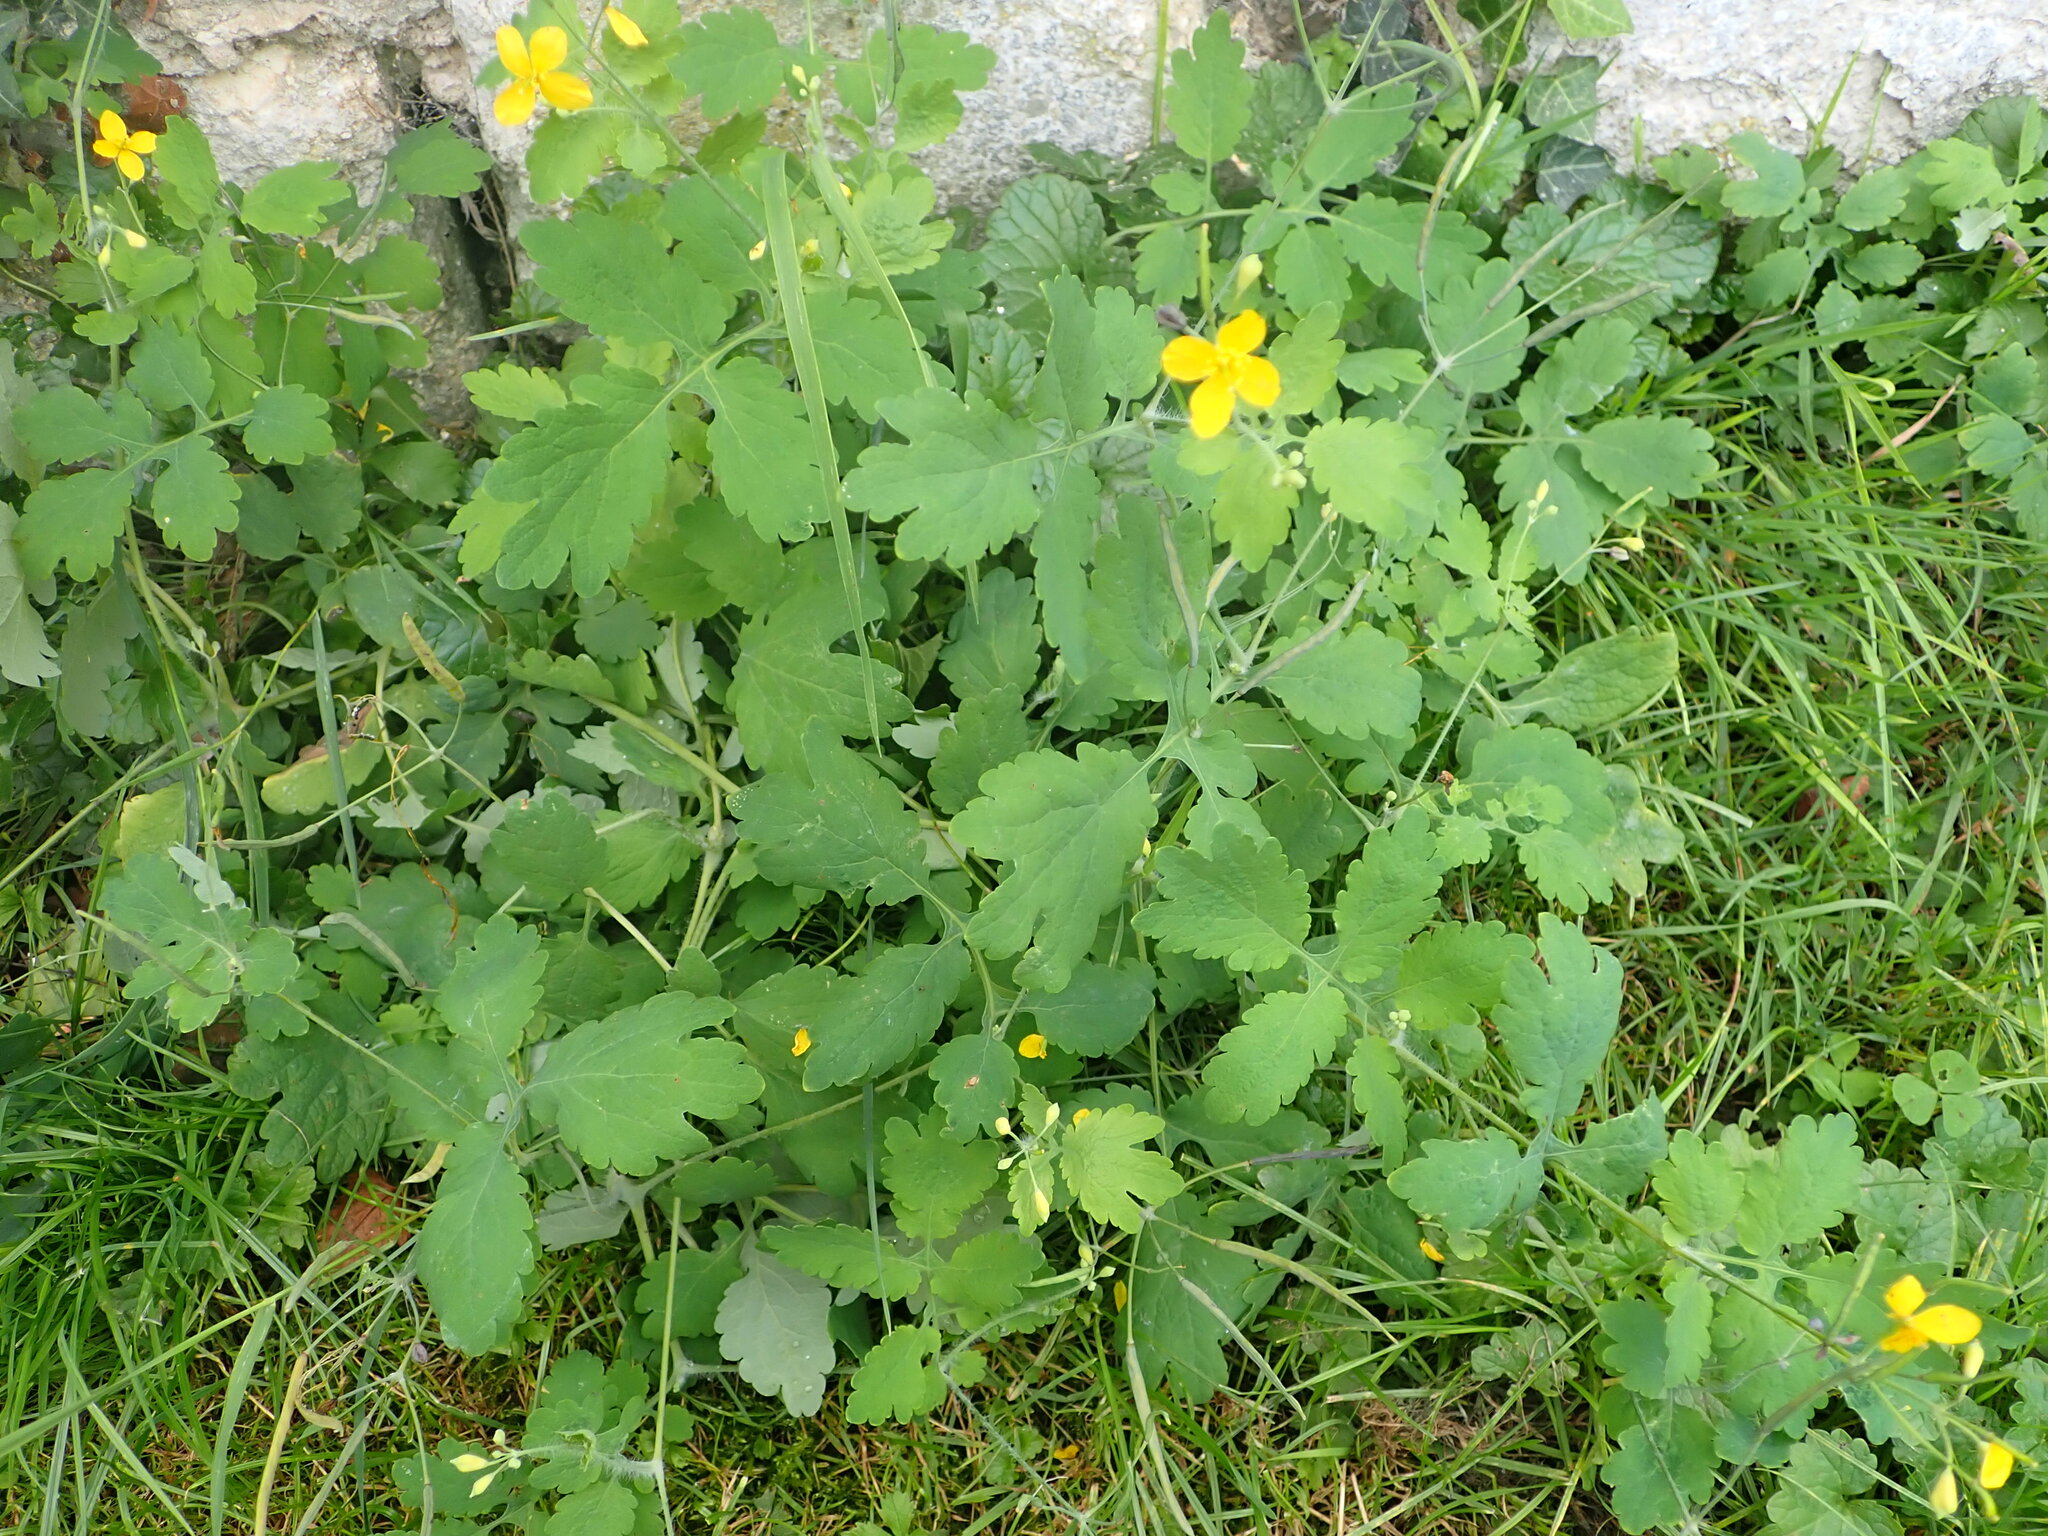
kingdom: Plantae
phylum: Tracheophyta
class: Magnoliopsida
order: Ranunculales
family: Papaveraceae
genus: Chelidonium
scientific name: Chelidonium majus
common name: Greater celandine
